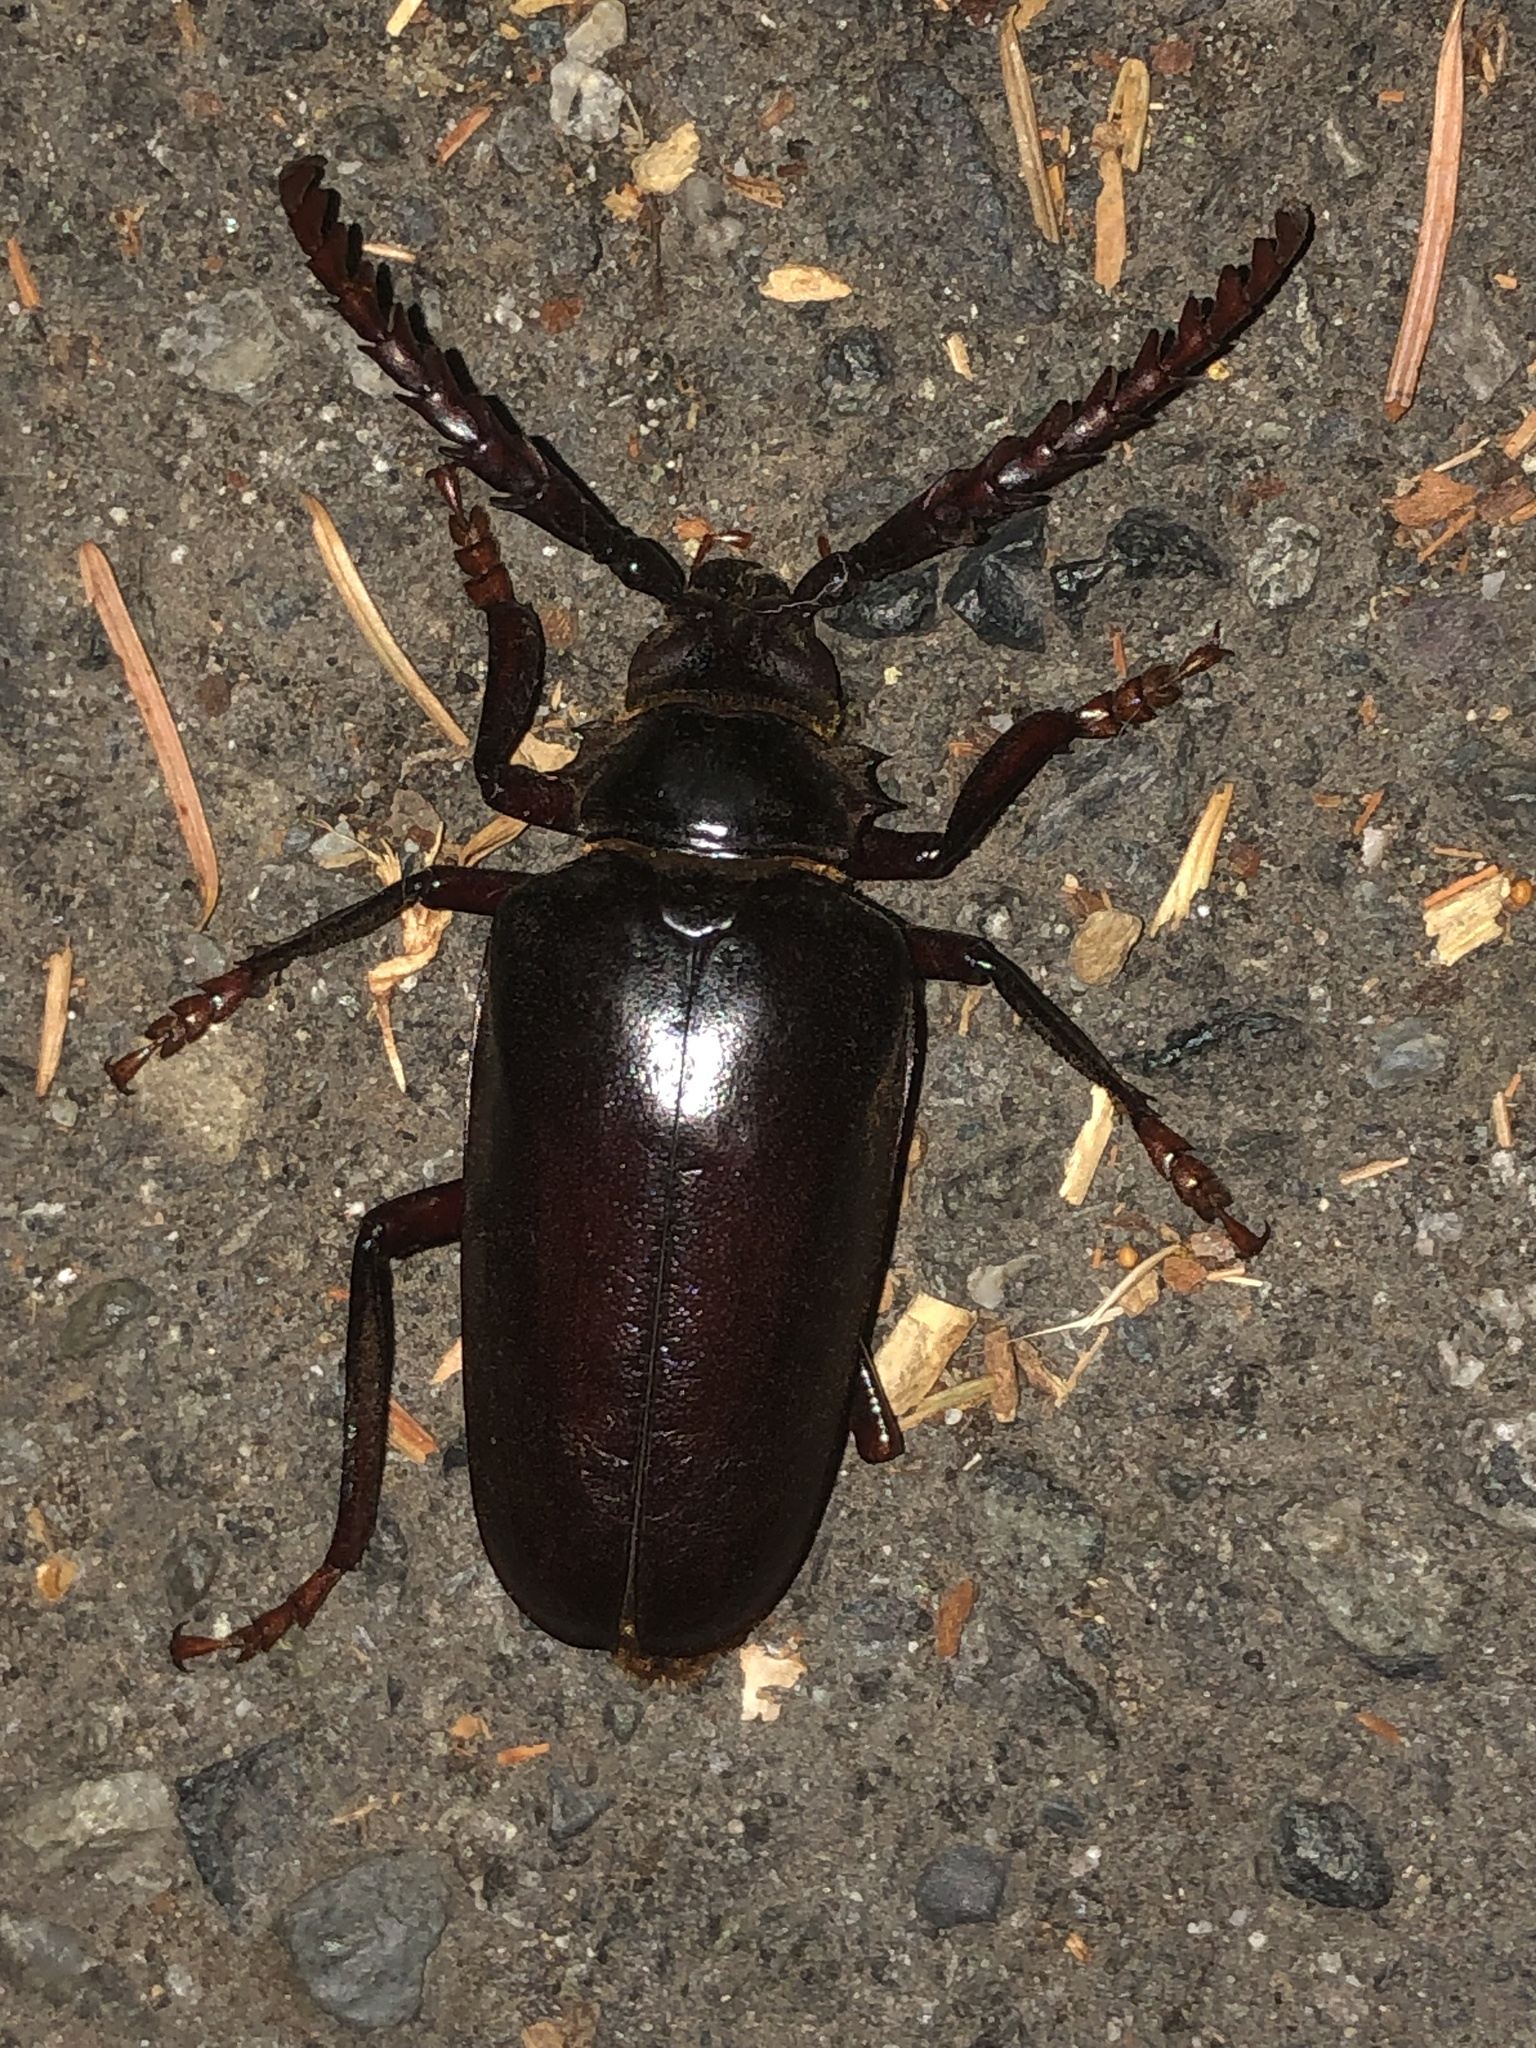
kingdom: Animalia
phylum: Arthropoda
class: Insecta
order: Coleoptera
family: Cerambycidae
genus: Prionus
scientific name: Prionus californicus
